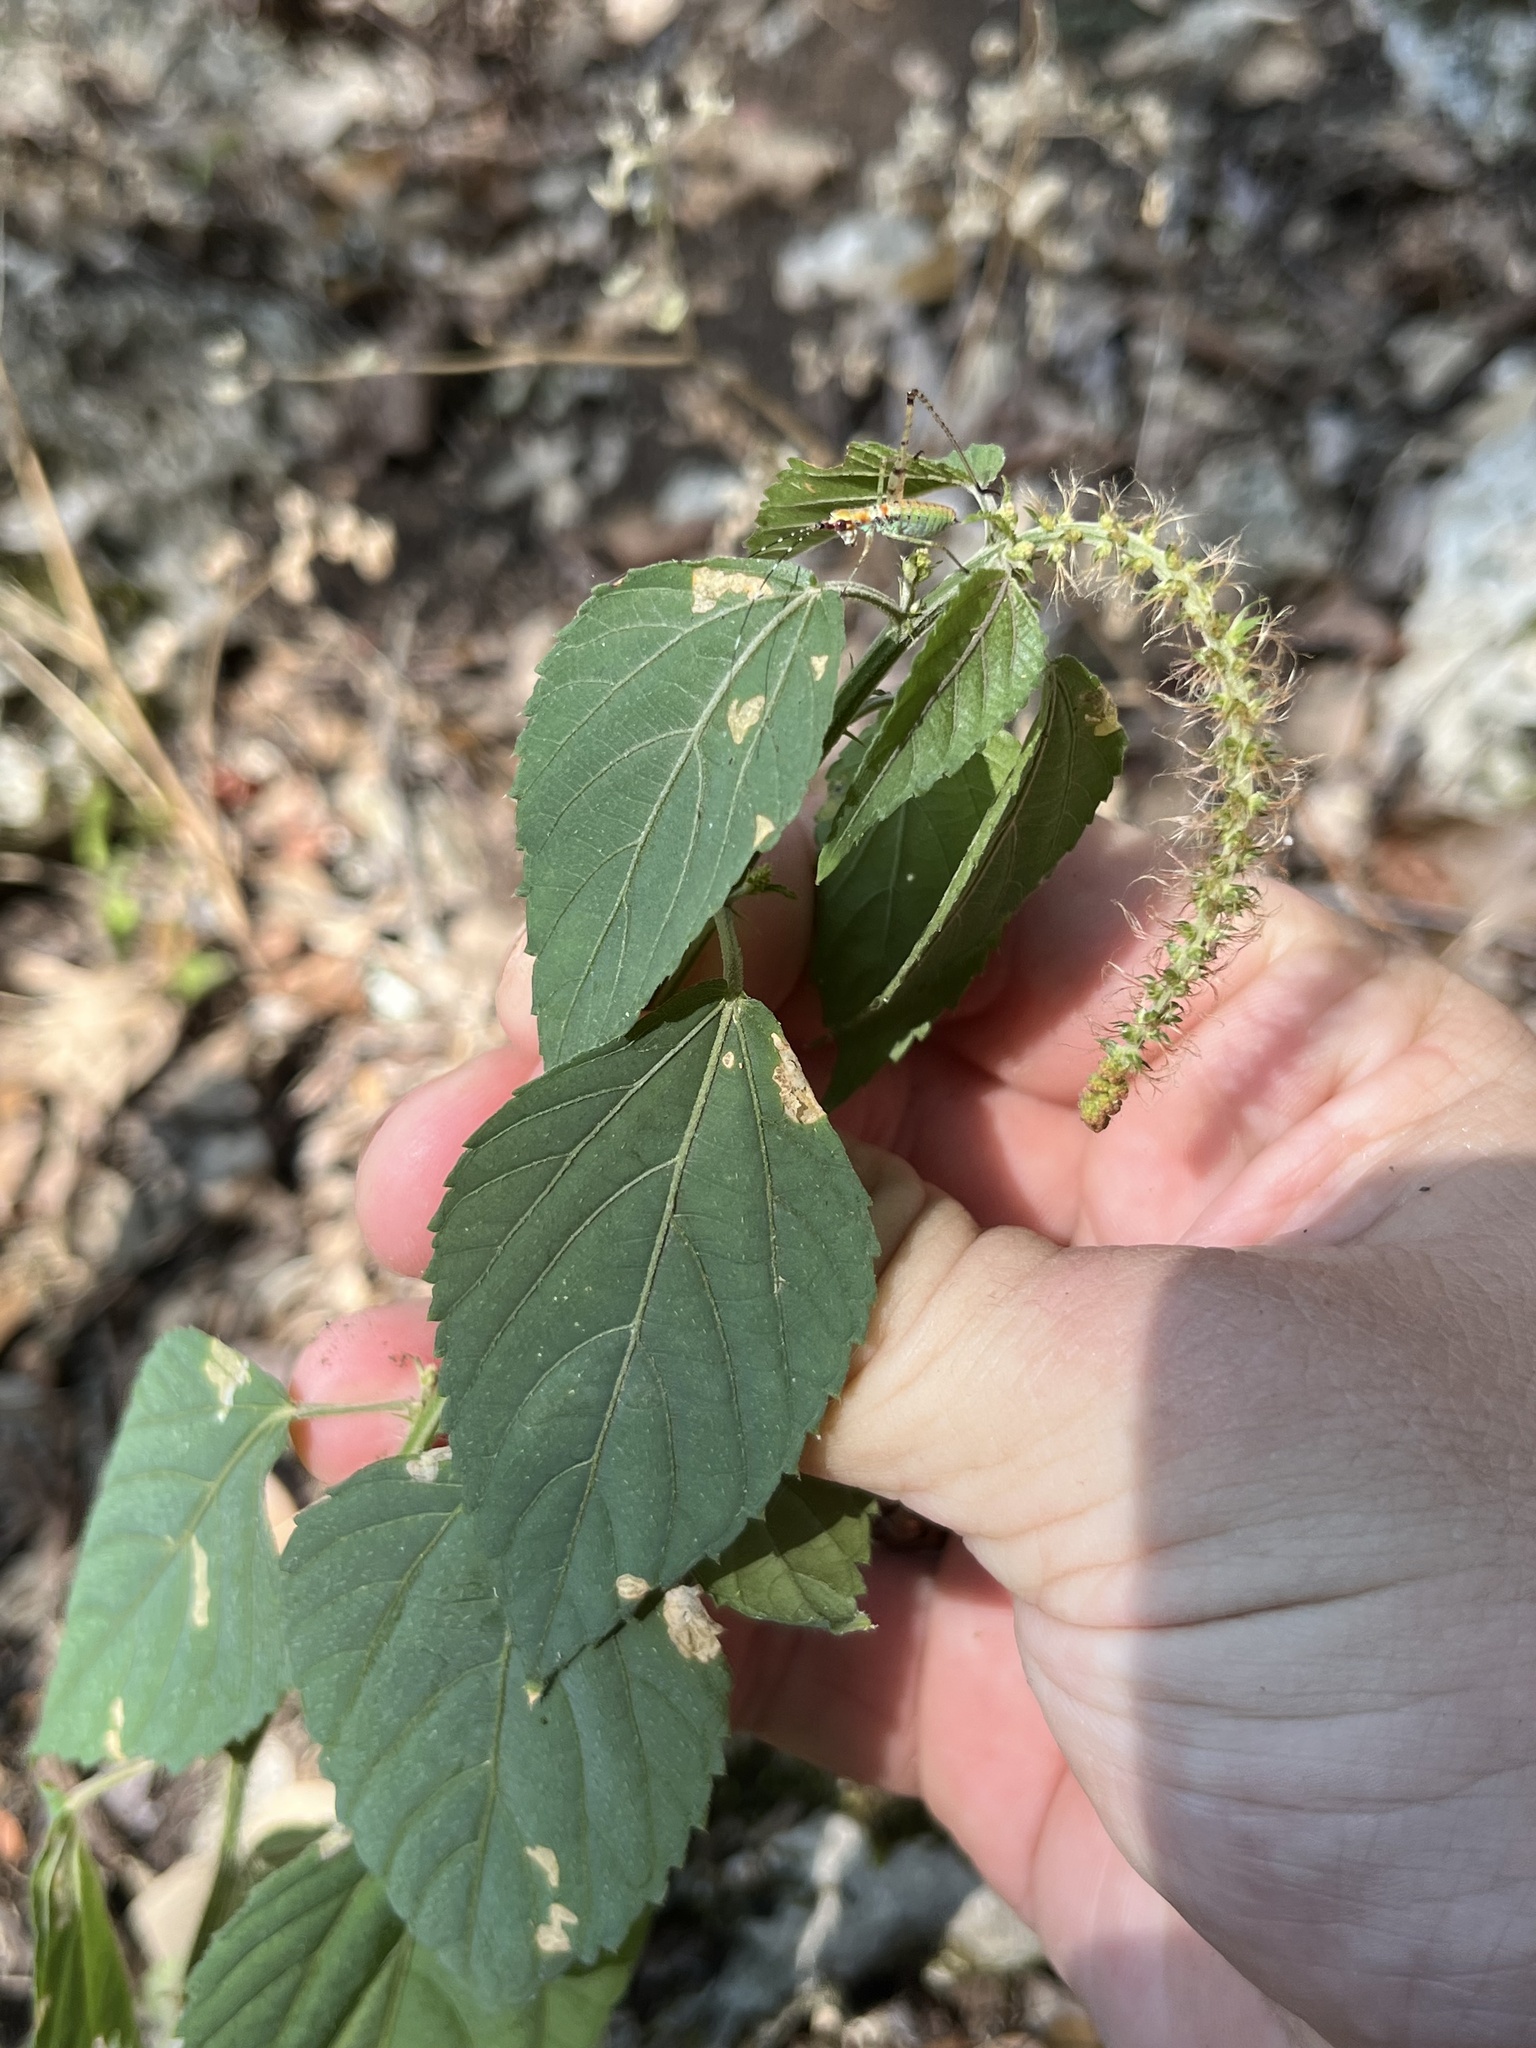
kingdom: Plantae
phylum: Tracheophyta
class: Magnoliopsida
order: Malpighiales
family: Euphorbiaceae
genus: Acalypha
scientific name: Acalypha phleoides
